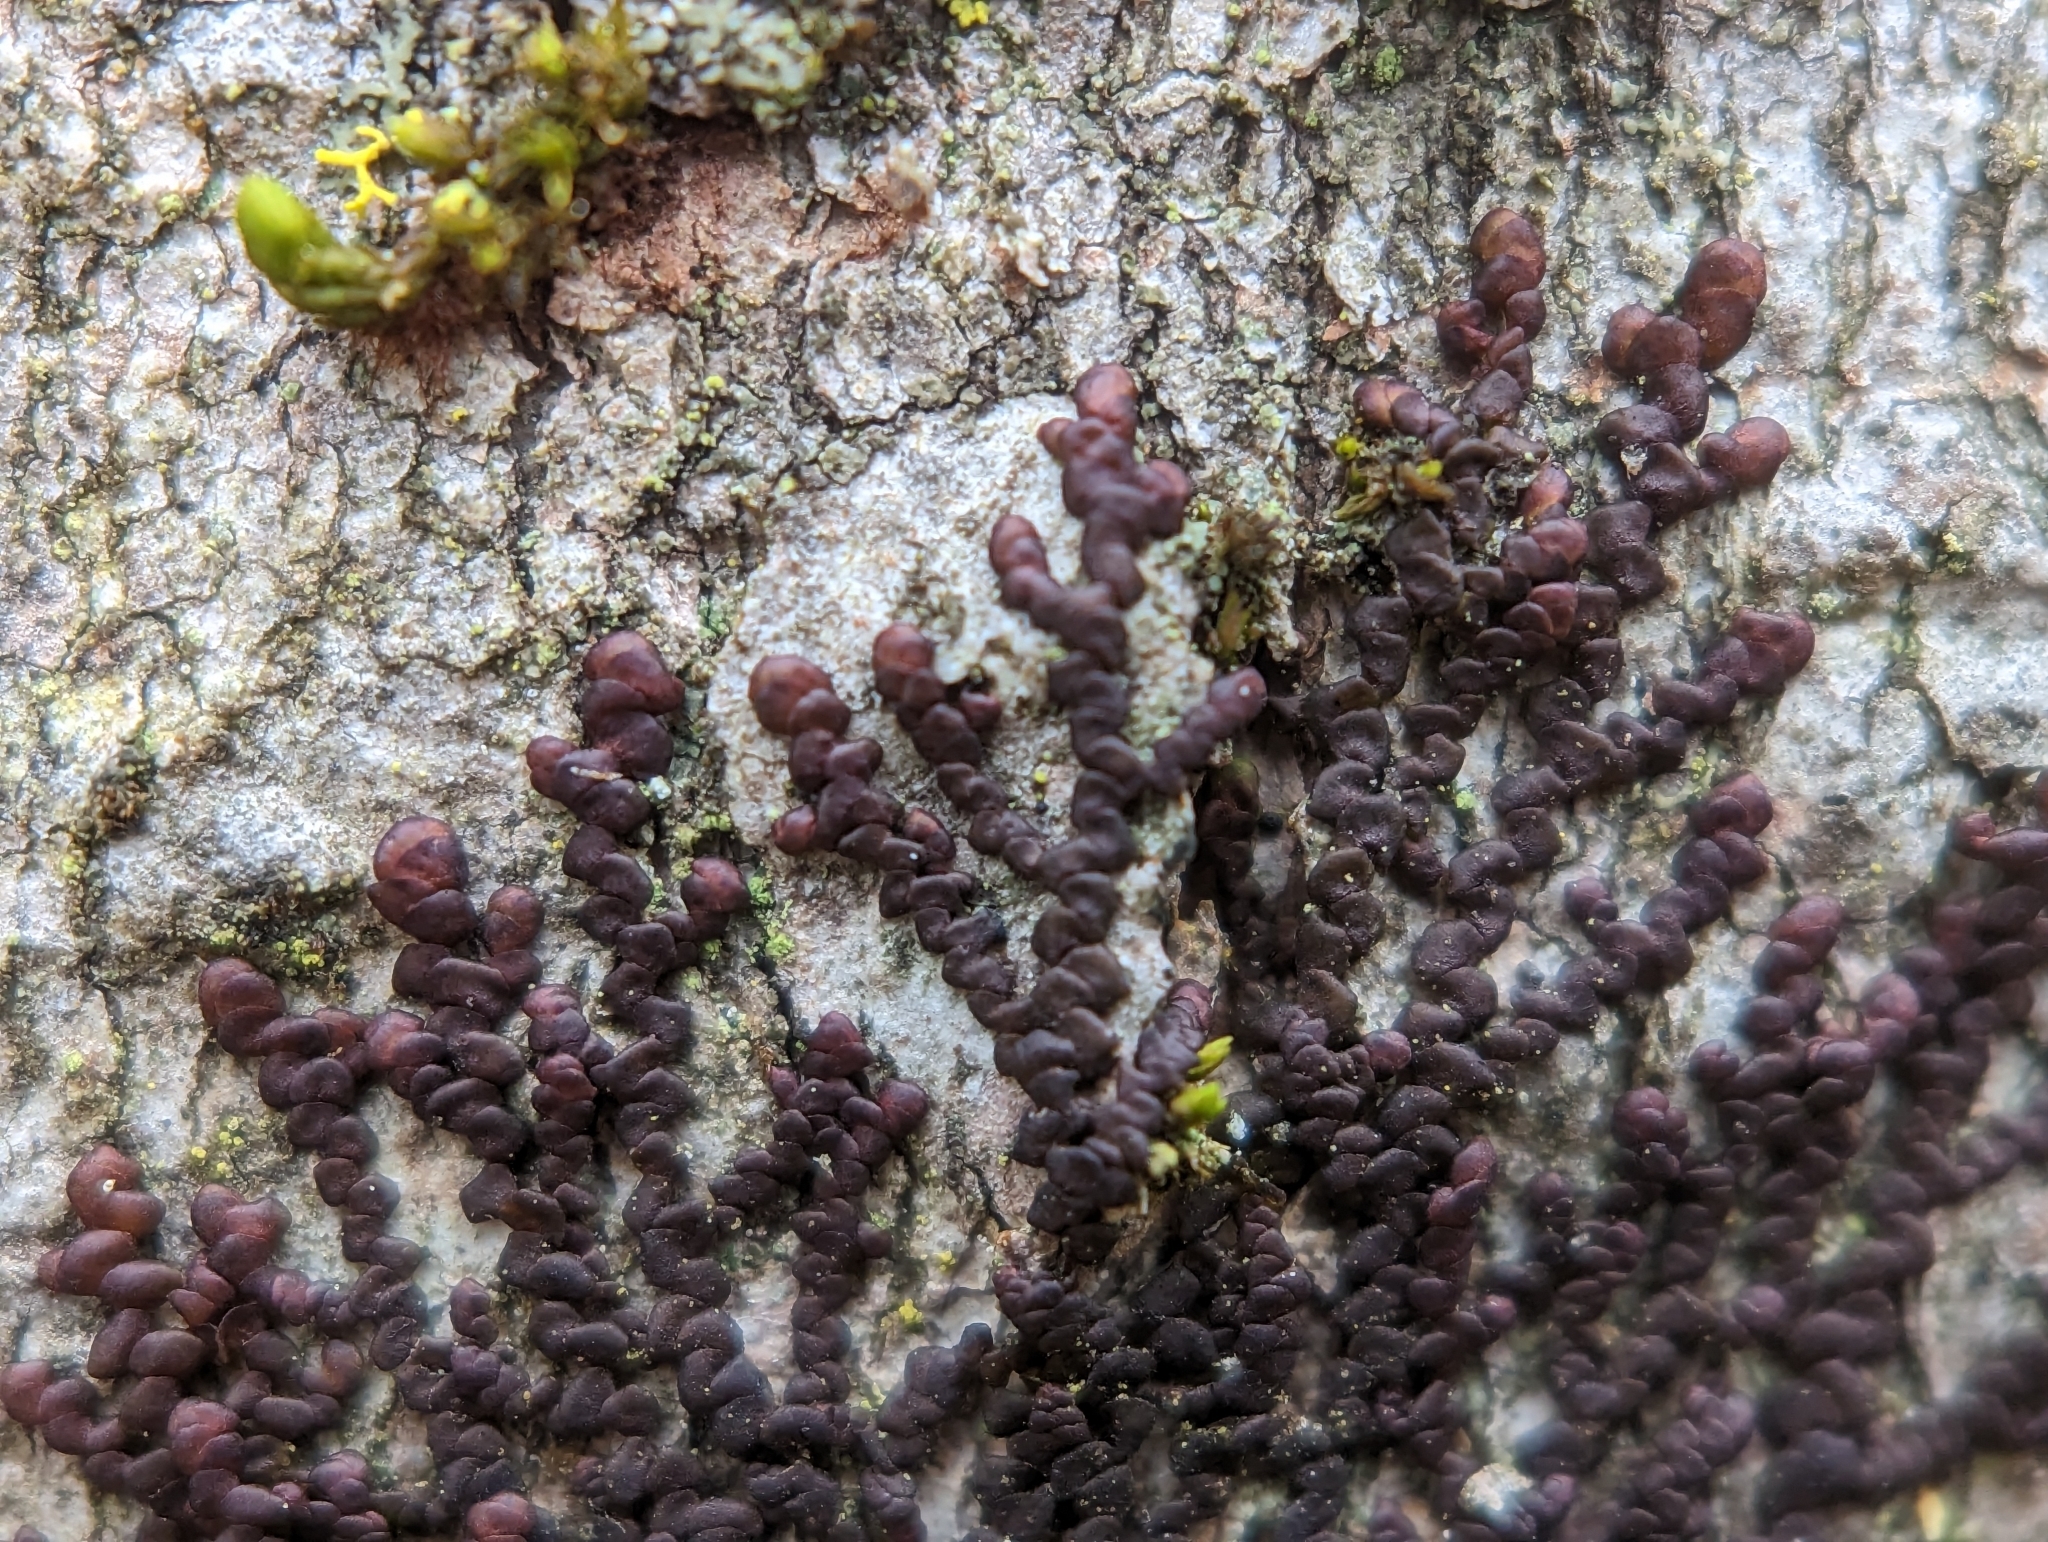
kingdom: Plantae
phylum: Marchantiophyta
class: Jungermanniopsida
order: Porellales
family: Frullaniaceae
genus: Frullania
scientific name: Frullania dilatata
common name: Dilated scalewort
